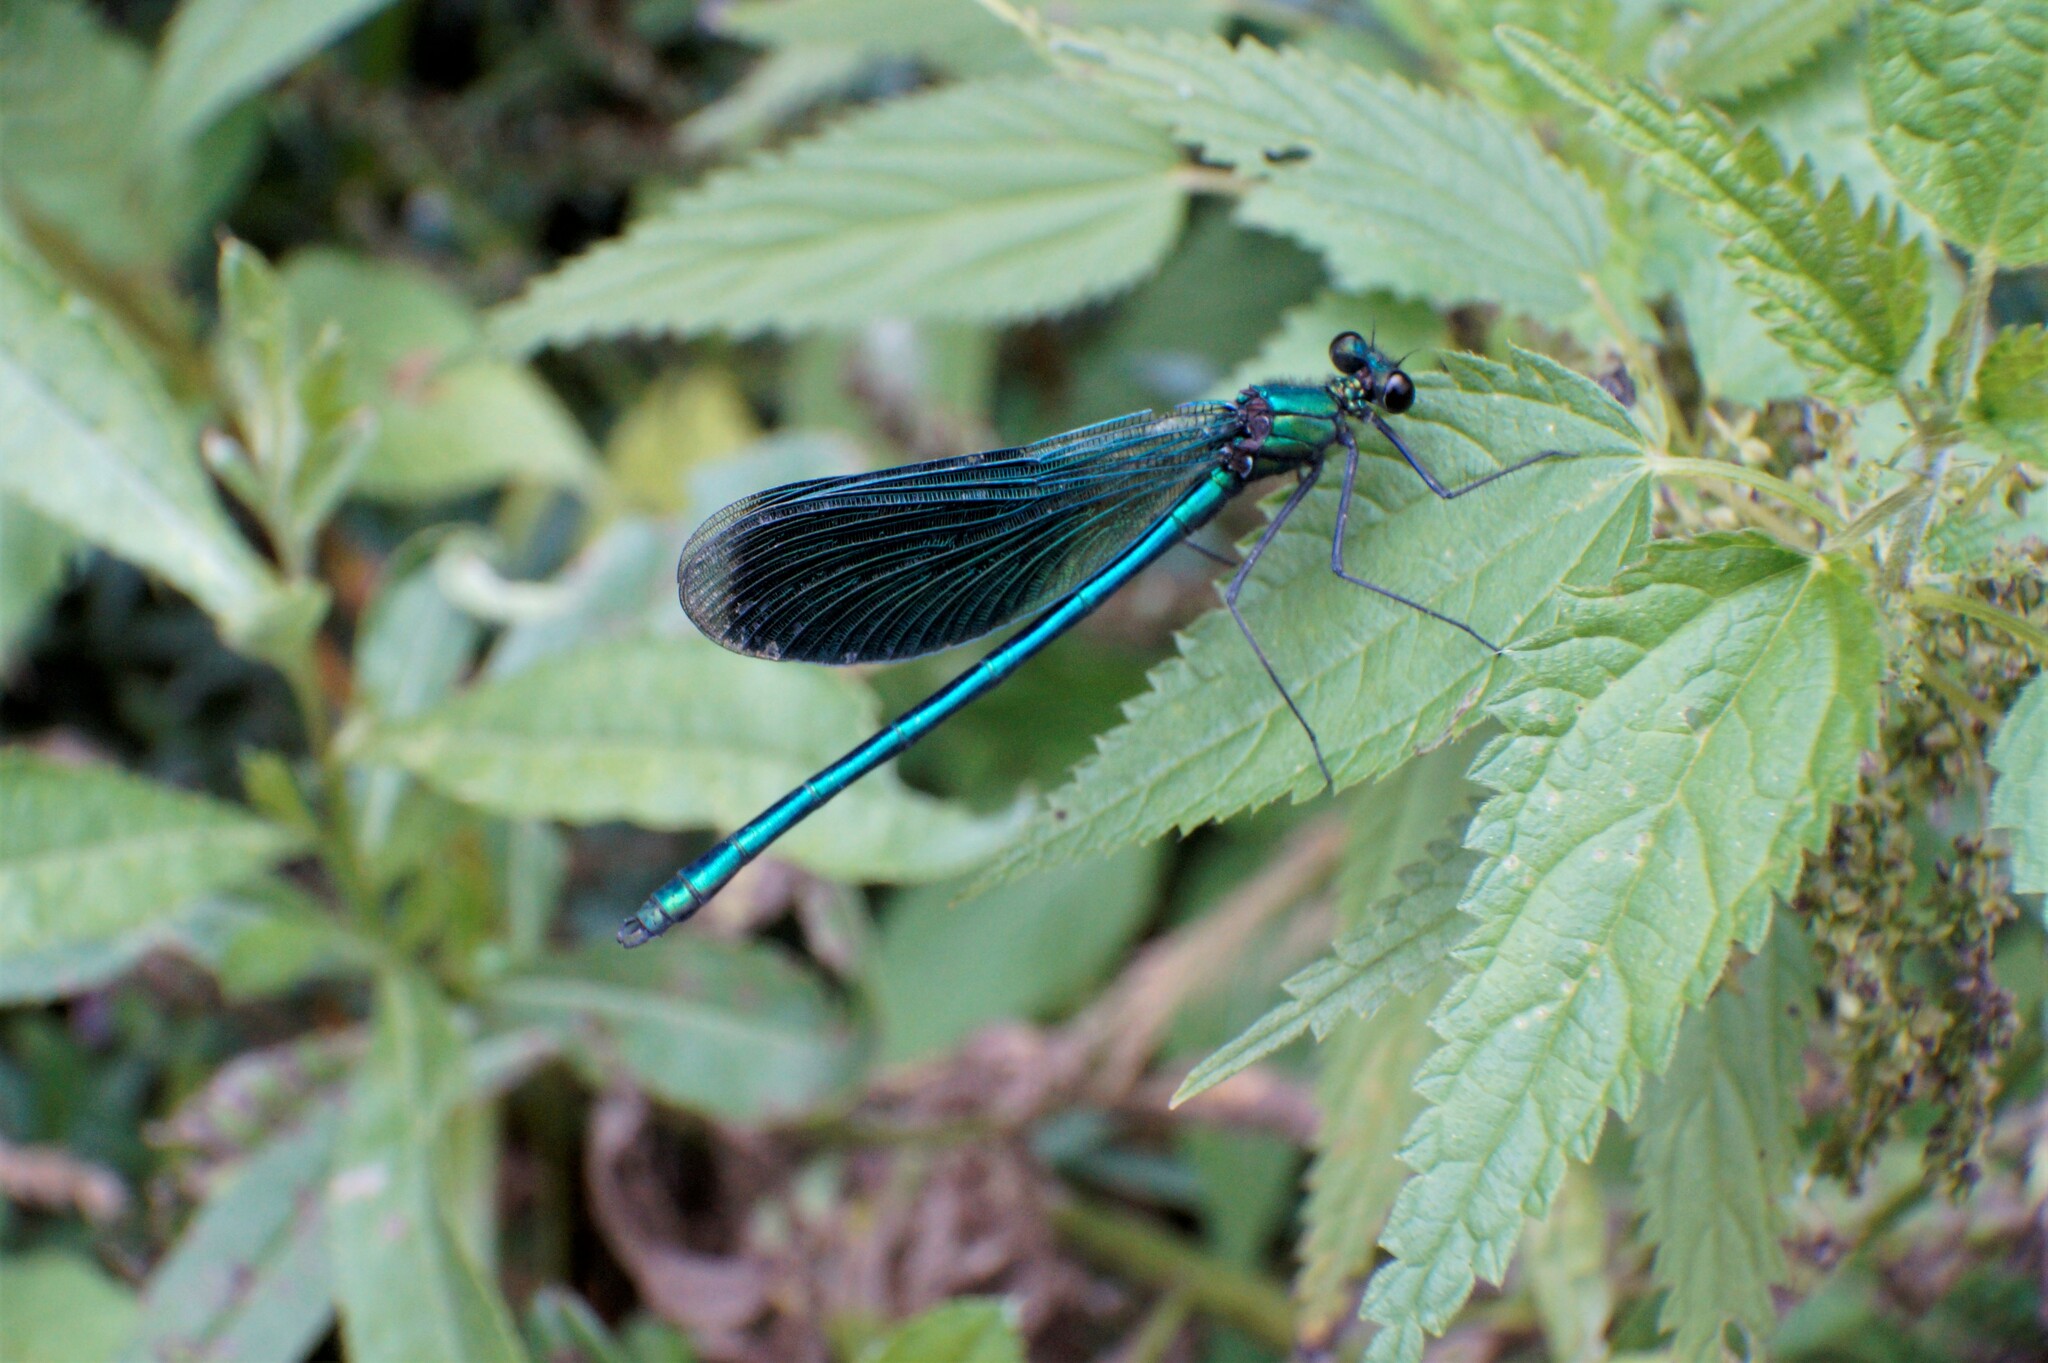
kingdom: Animalia
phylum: Arthropoda
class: Insecta
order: Odonata
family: Calopterygidae
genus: Calopteryx
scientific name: Calopteryx splendens
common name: Banded demoiselle
